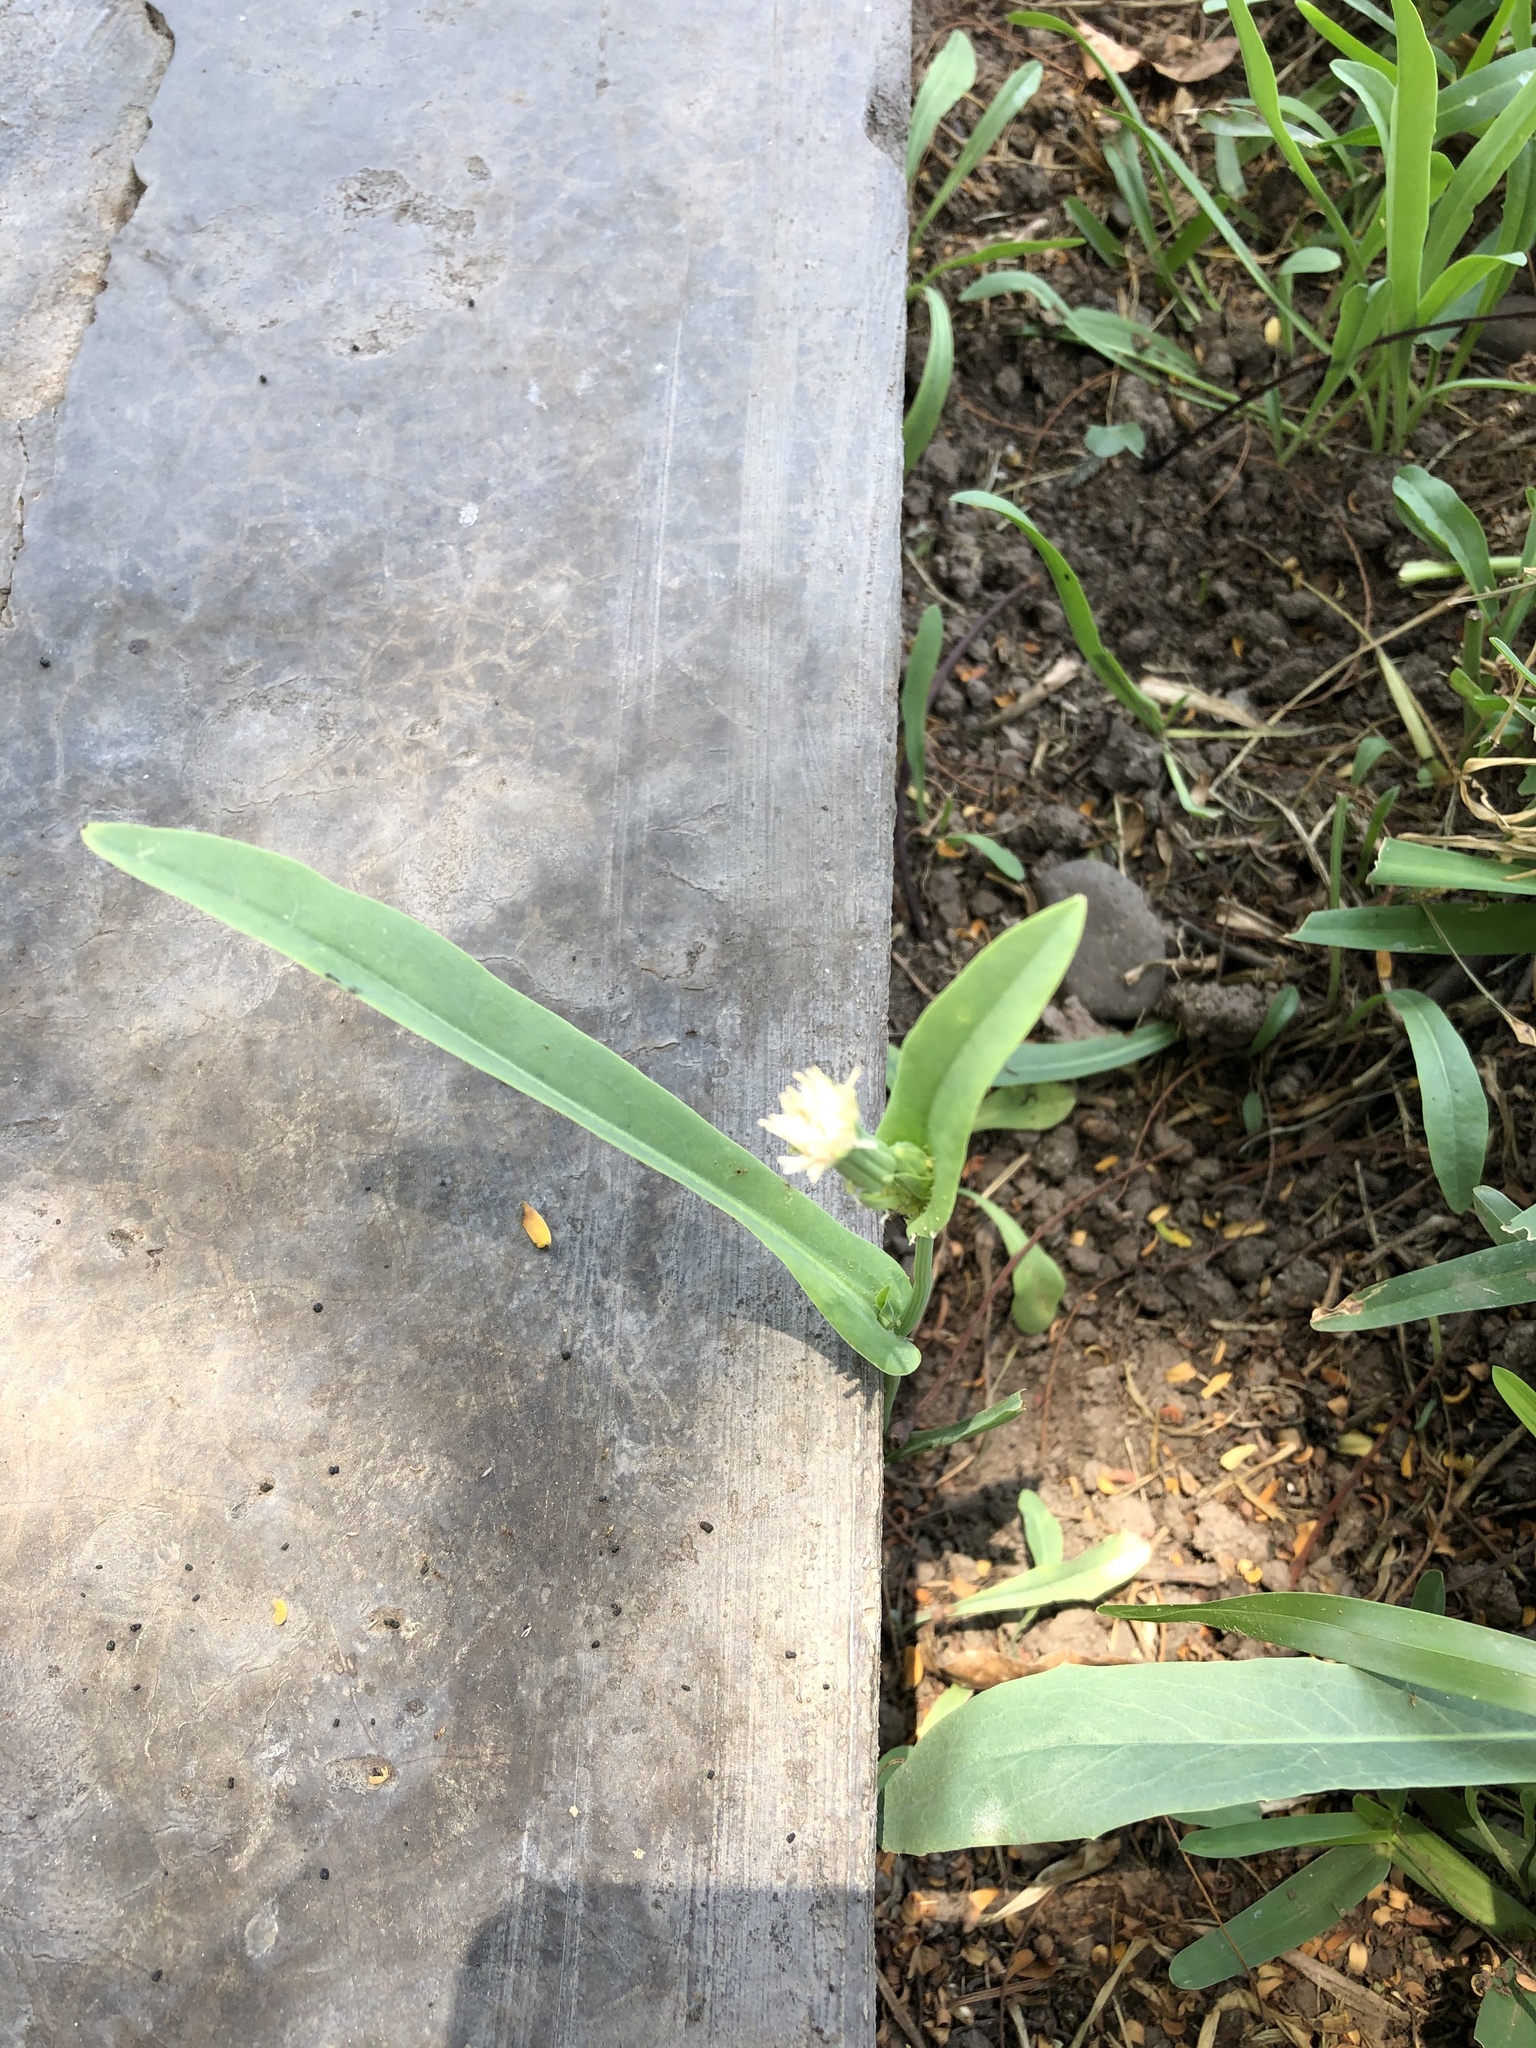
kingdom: Plantae
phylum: Tracheophyta
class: Magnoliopsida
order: Asterales
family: Asteraceae
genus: Picrosia
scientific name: Picrosia longifolia
